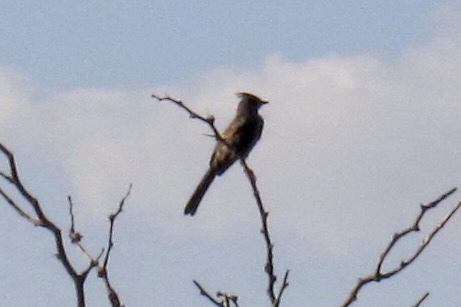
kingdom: Animalia
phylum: Chordata
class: Aves
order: Passeriformes
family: Ptilogonatidae
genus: Phainopepla
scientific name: Phainopepla nitens
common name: Phainopepla
